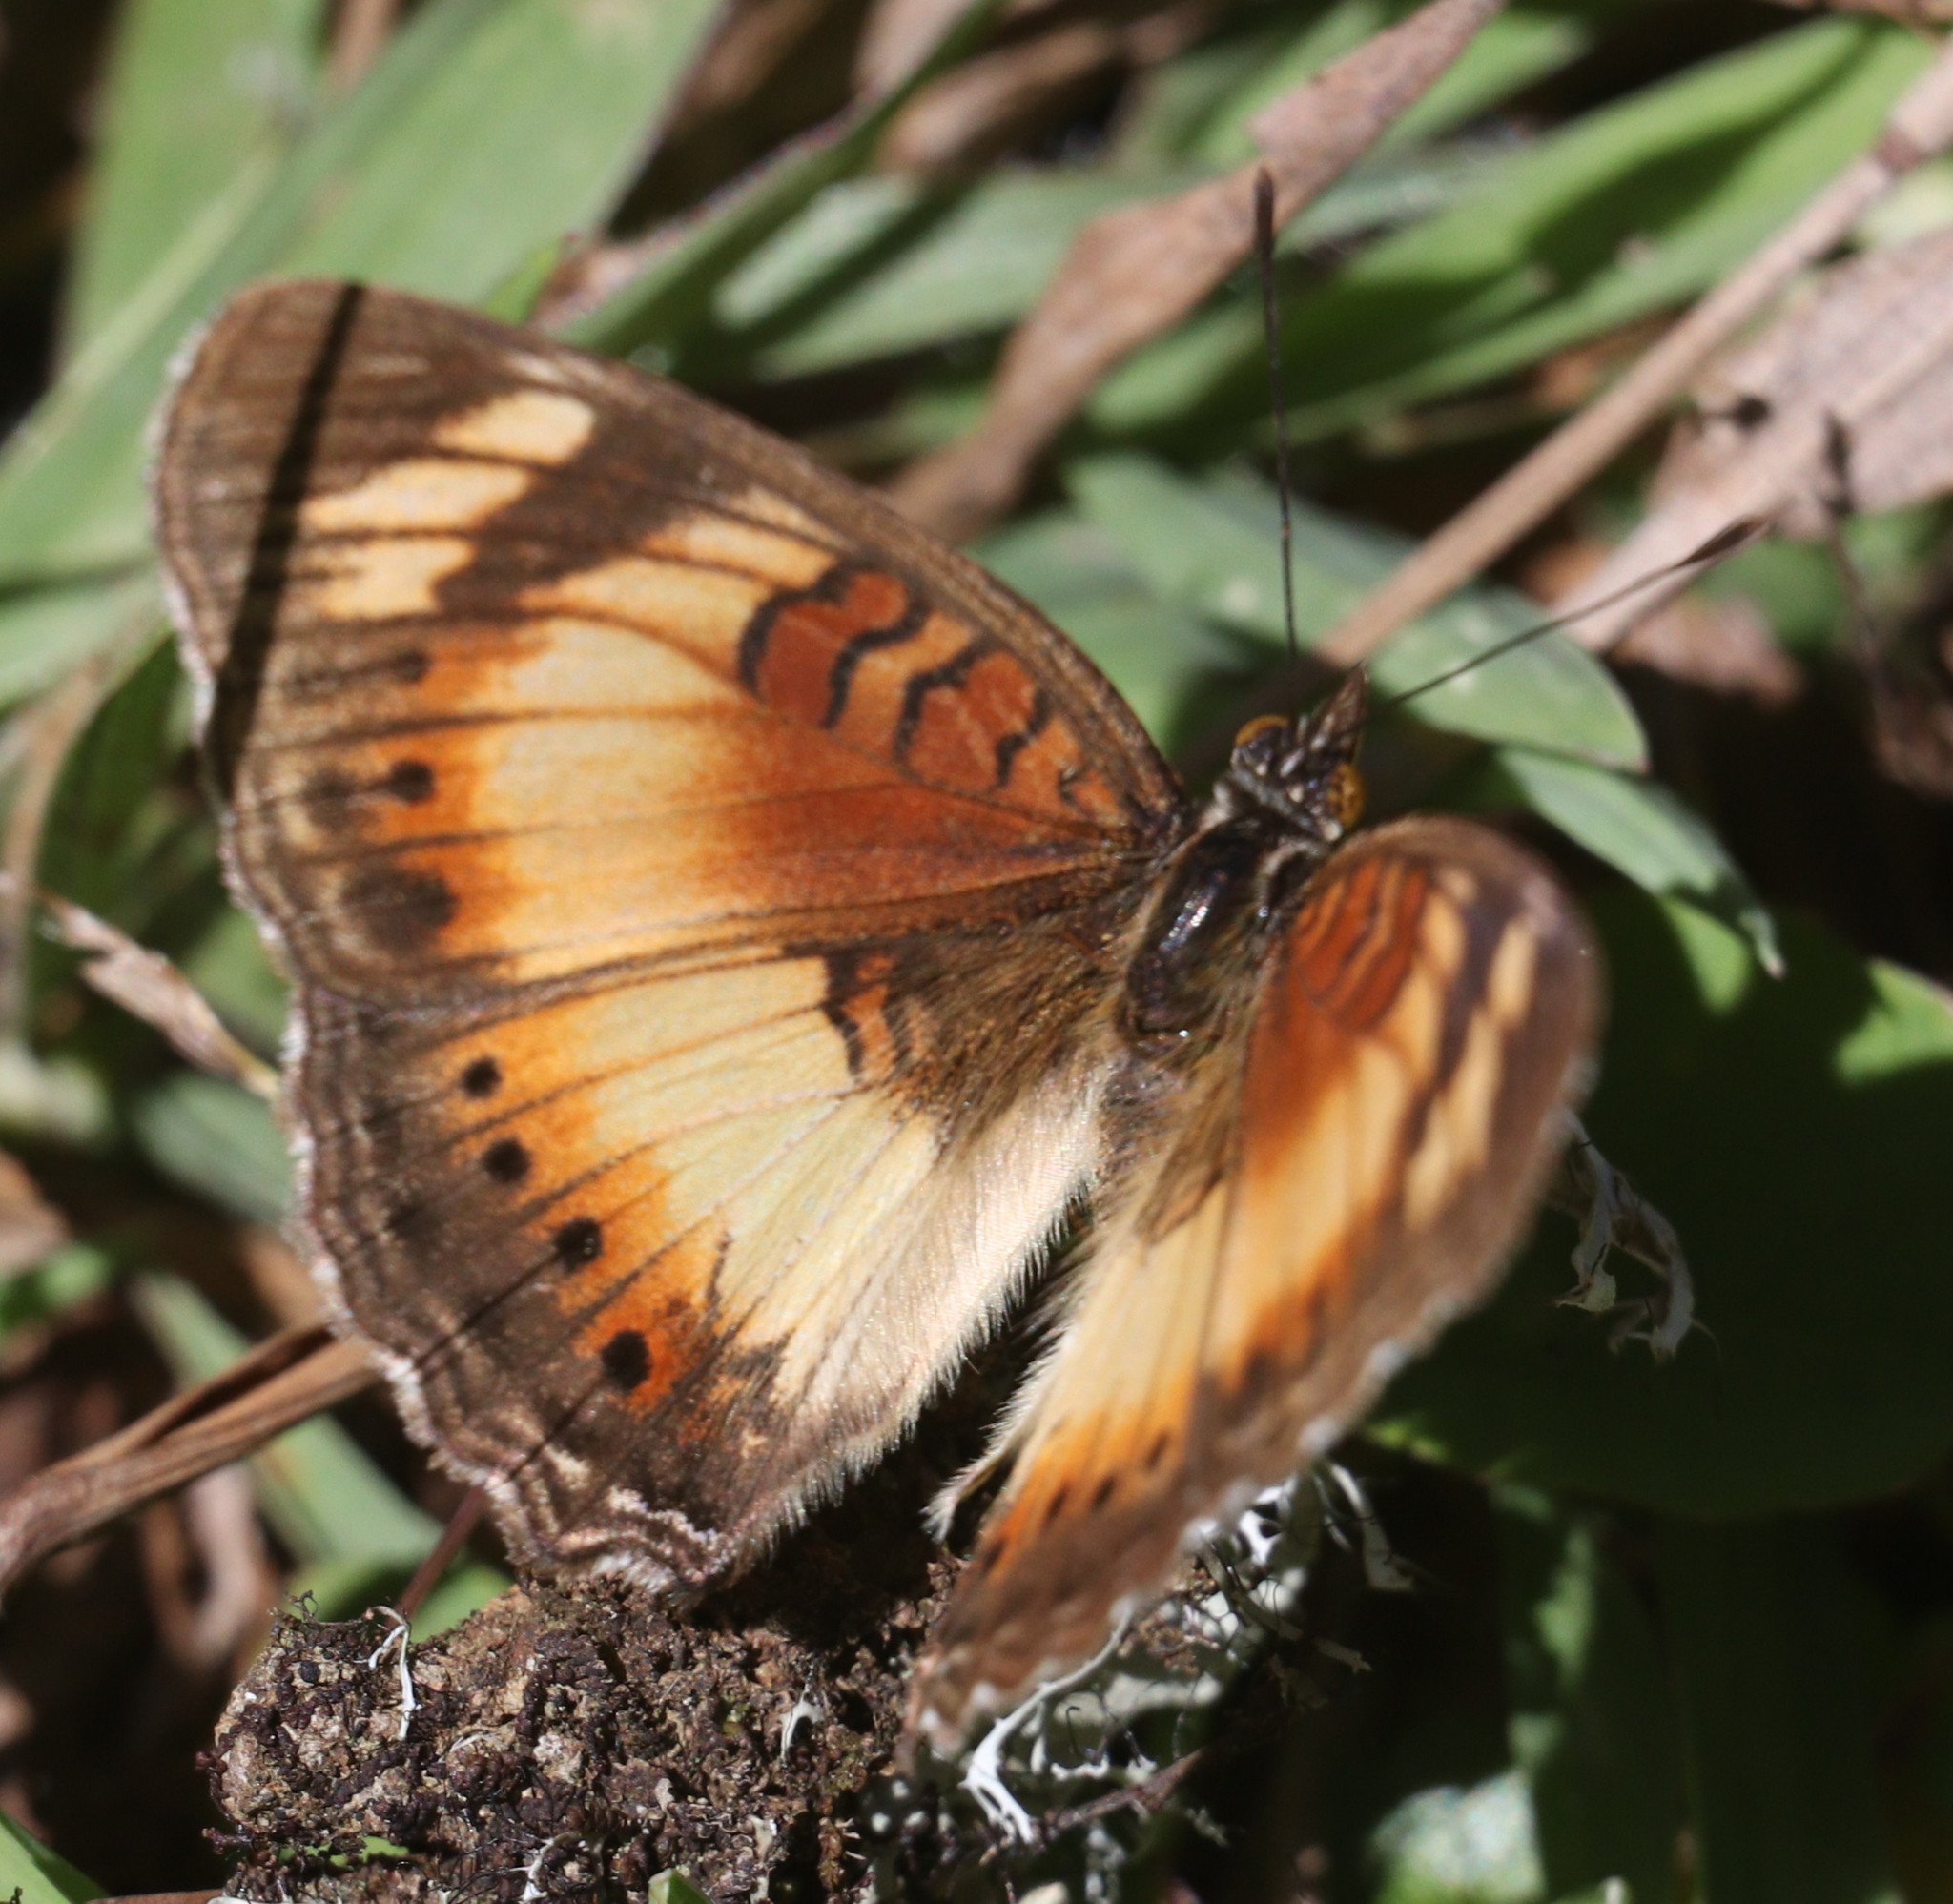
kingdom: Animalia
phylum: Arthropoda
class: Insecta
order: Lepidoptera
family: Nymphalidae
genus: Junonia
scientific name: Junonia sophia
